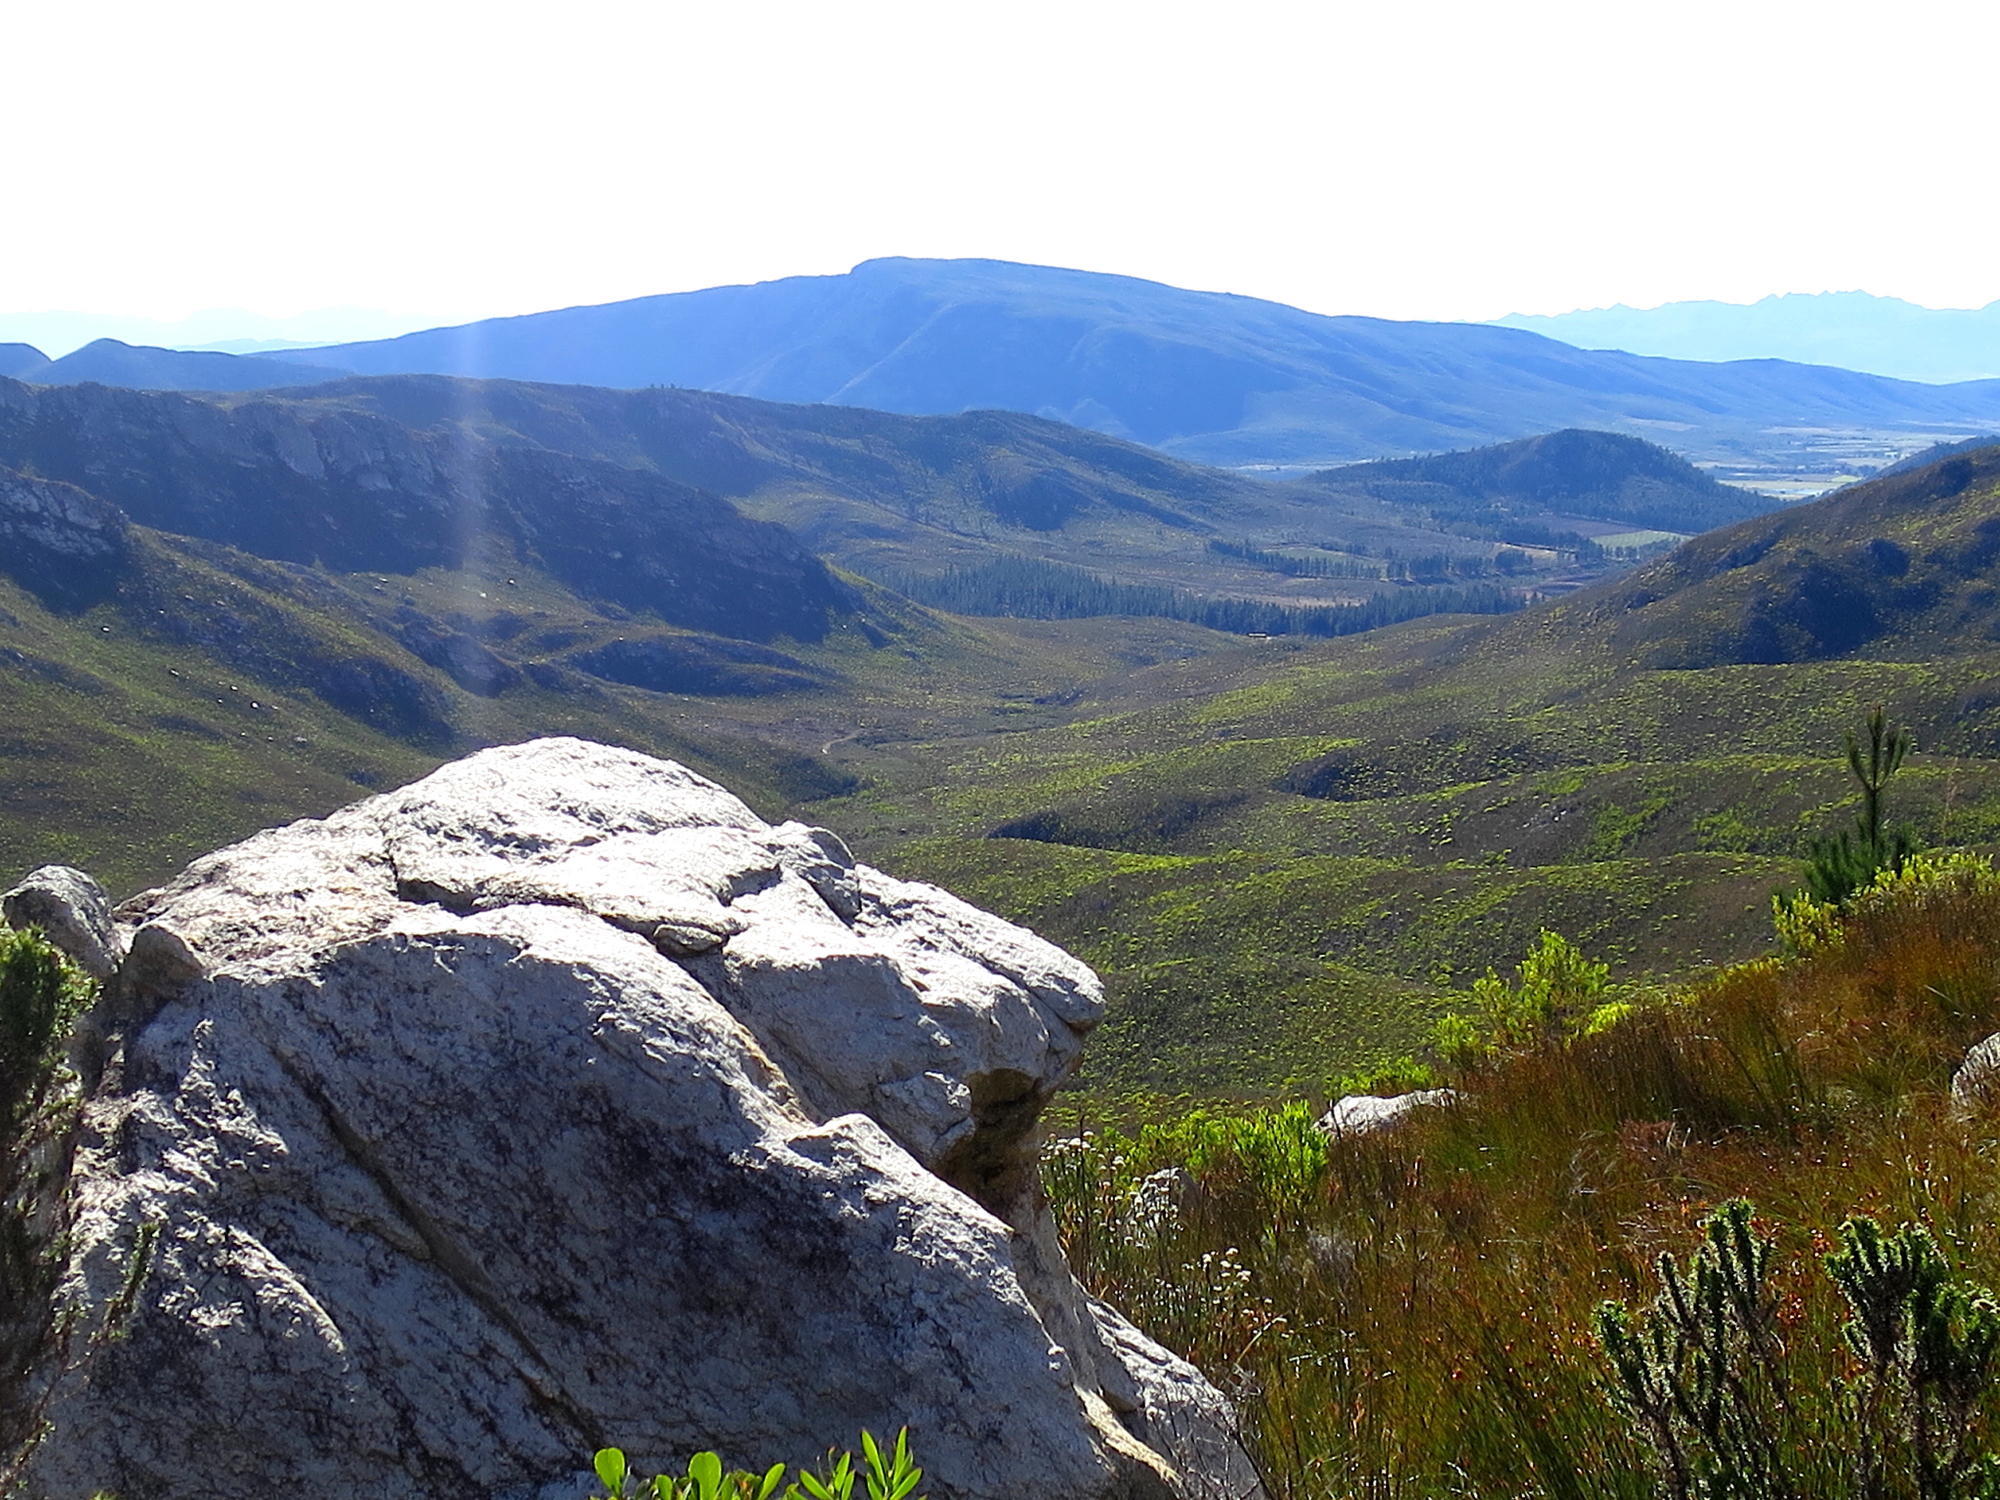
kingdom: Plantae
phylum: Tracheophyta
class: Magnoliopsida
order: Proteales
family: Proteaceae
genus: Leucadendron
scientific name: Leucadendron salignum
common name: Common sunshine conebush
